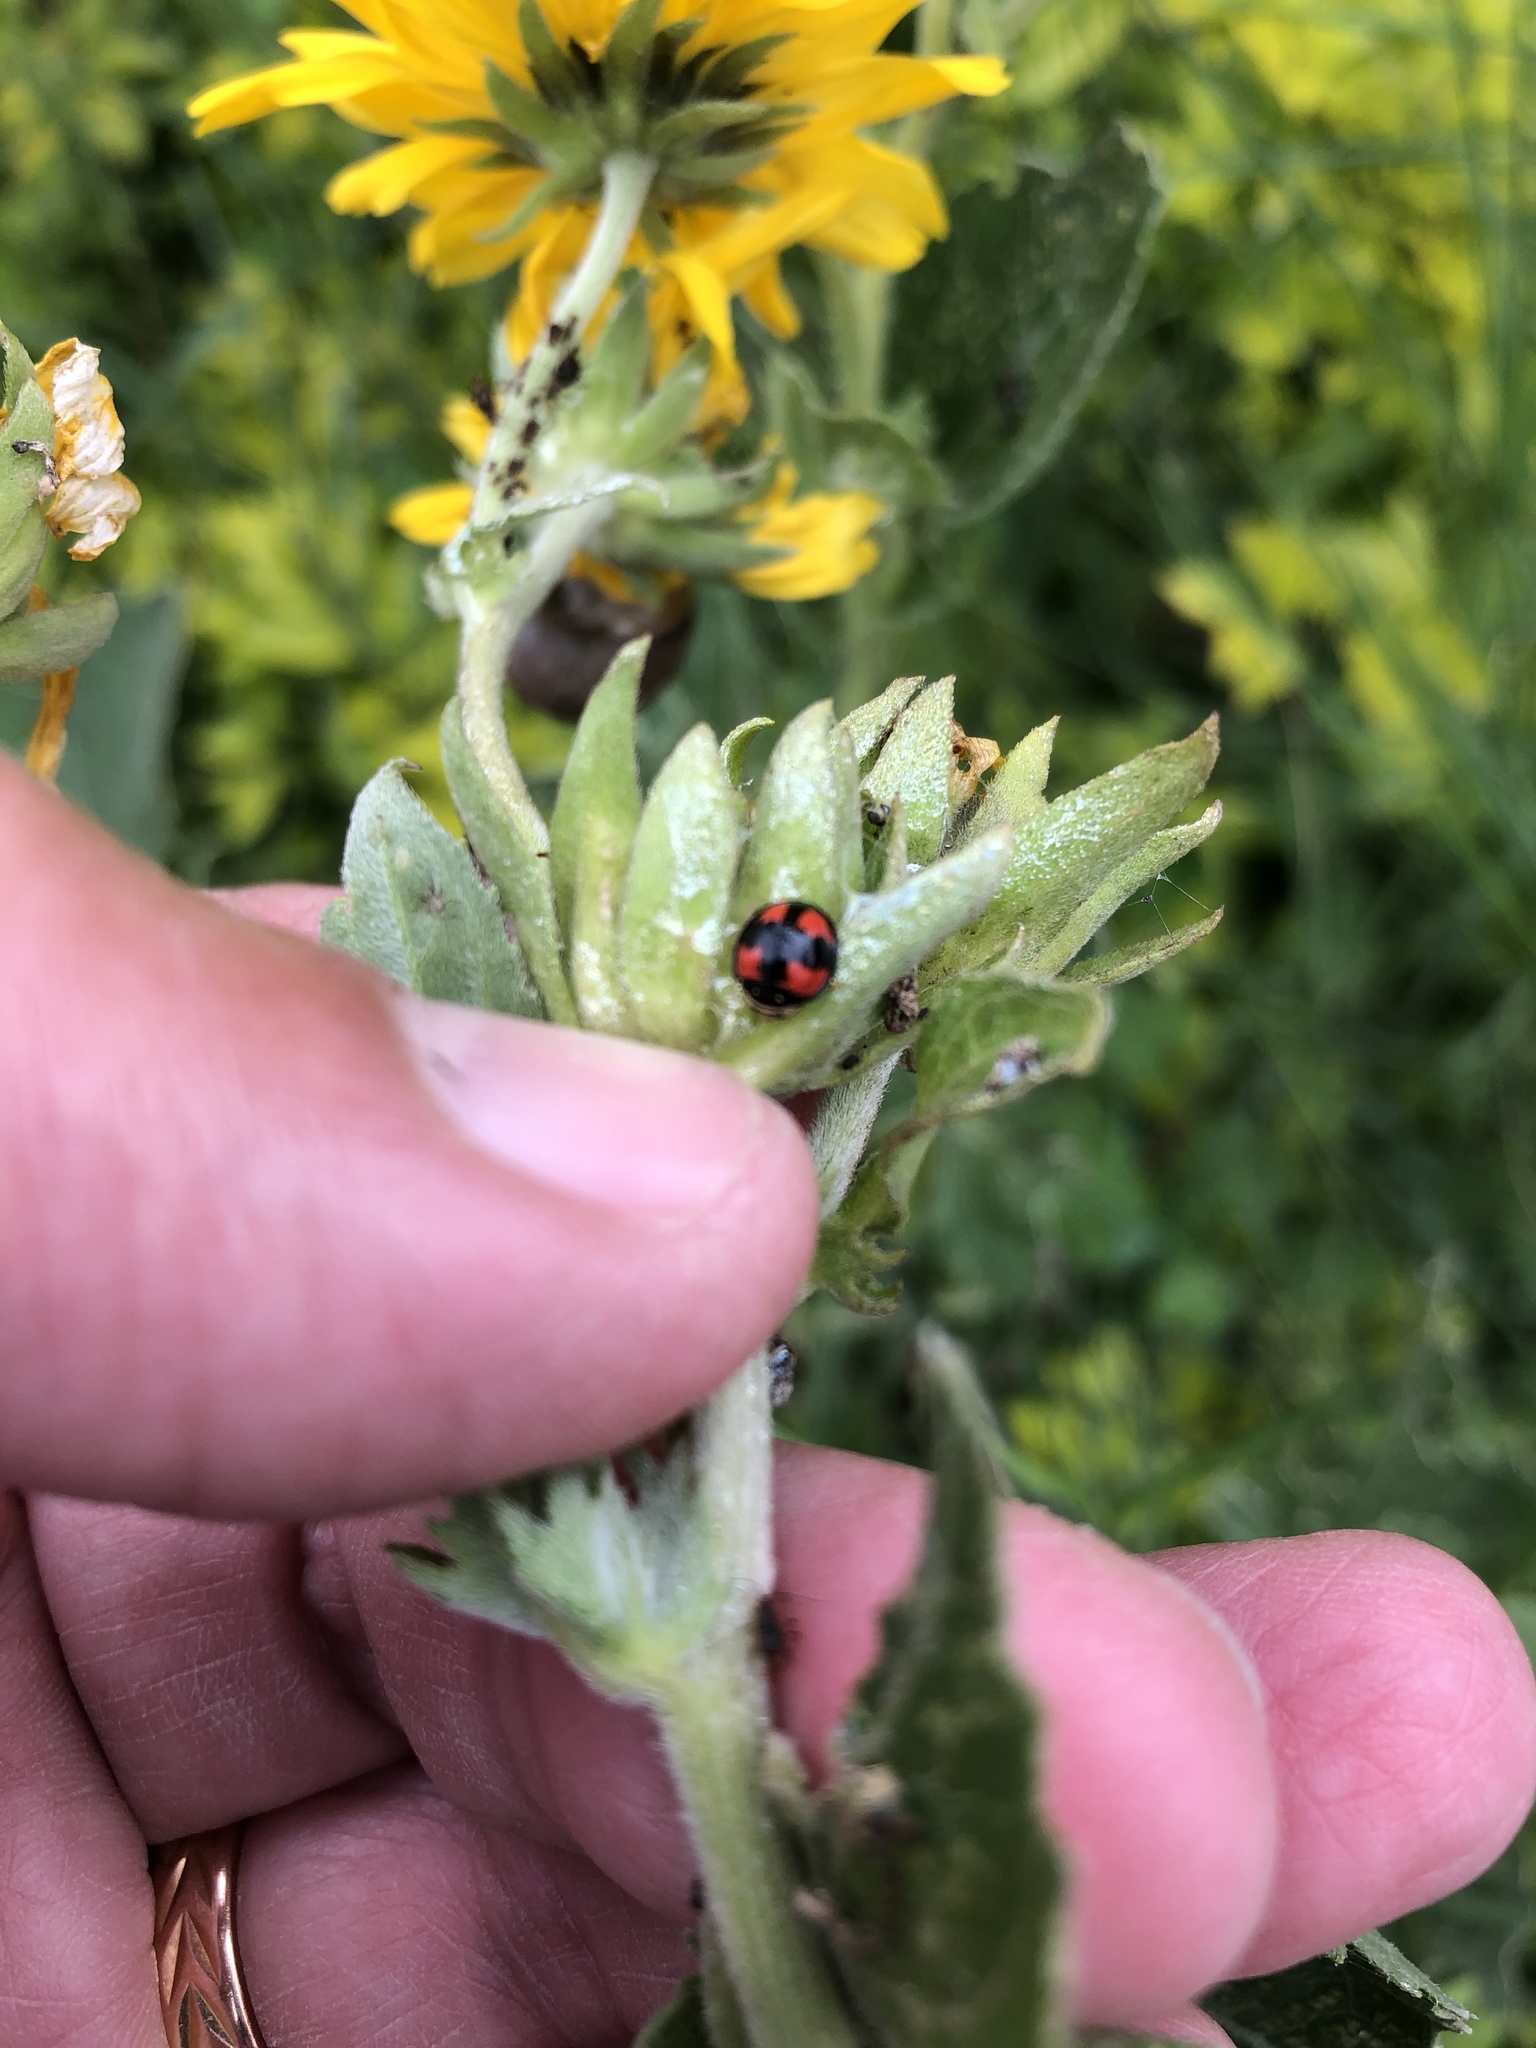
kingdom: Animalia
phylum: Arthropoda
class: Insecta
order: Coleoptera
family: Coccinellidae
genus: Cheilomenes
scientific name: Cheilomenes sexmaculata
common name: Ladybird beetle
